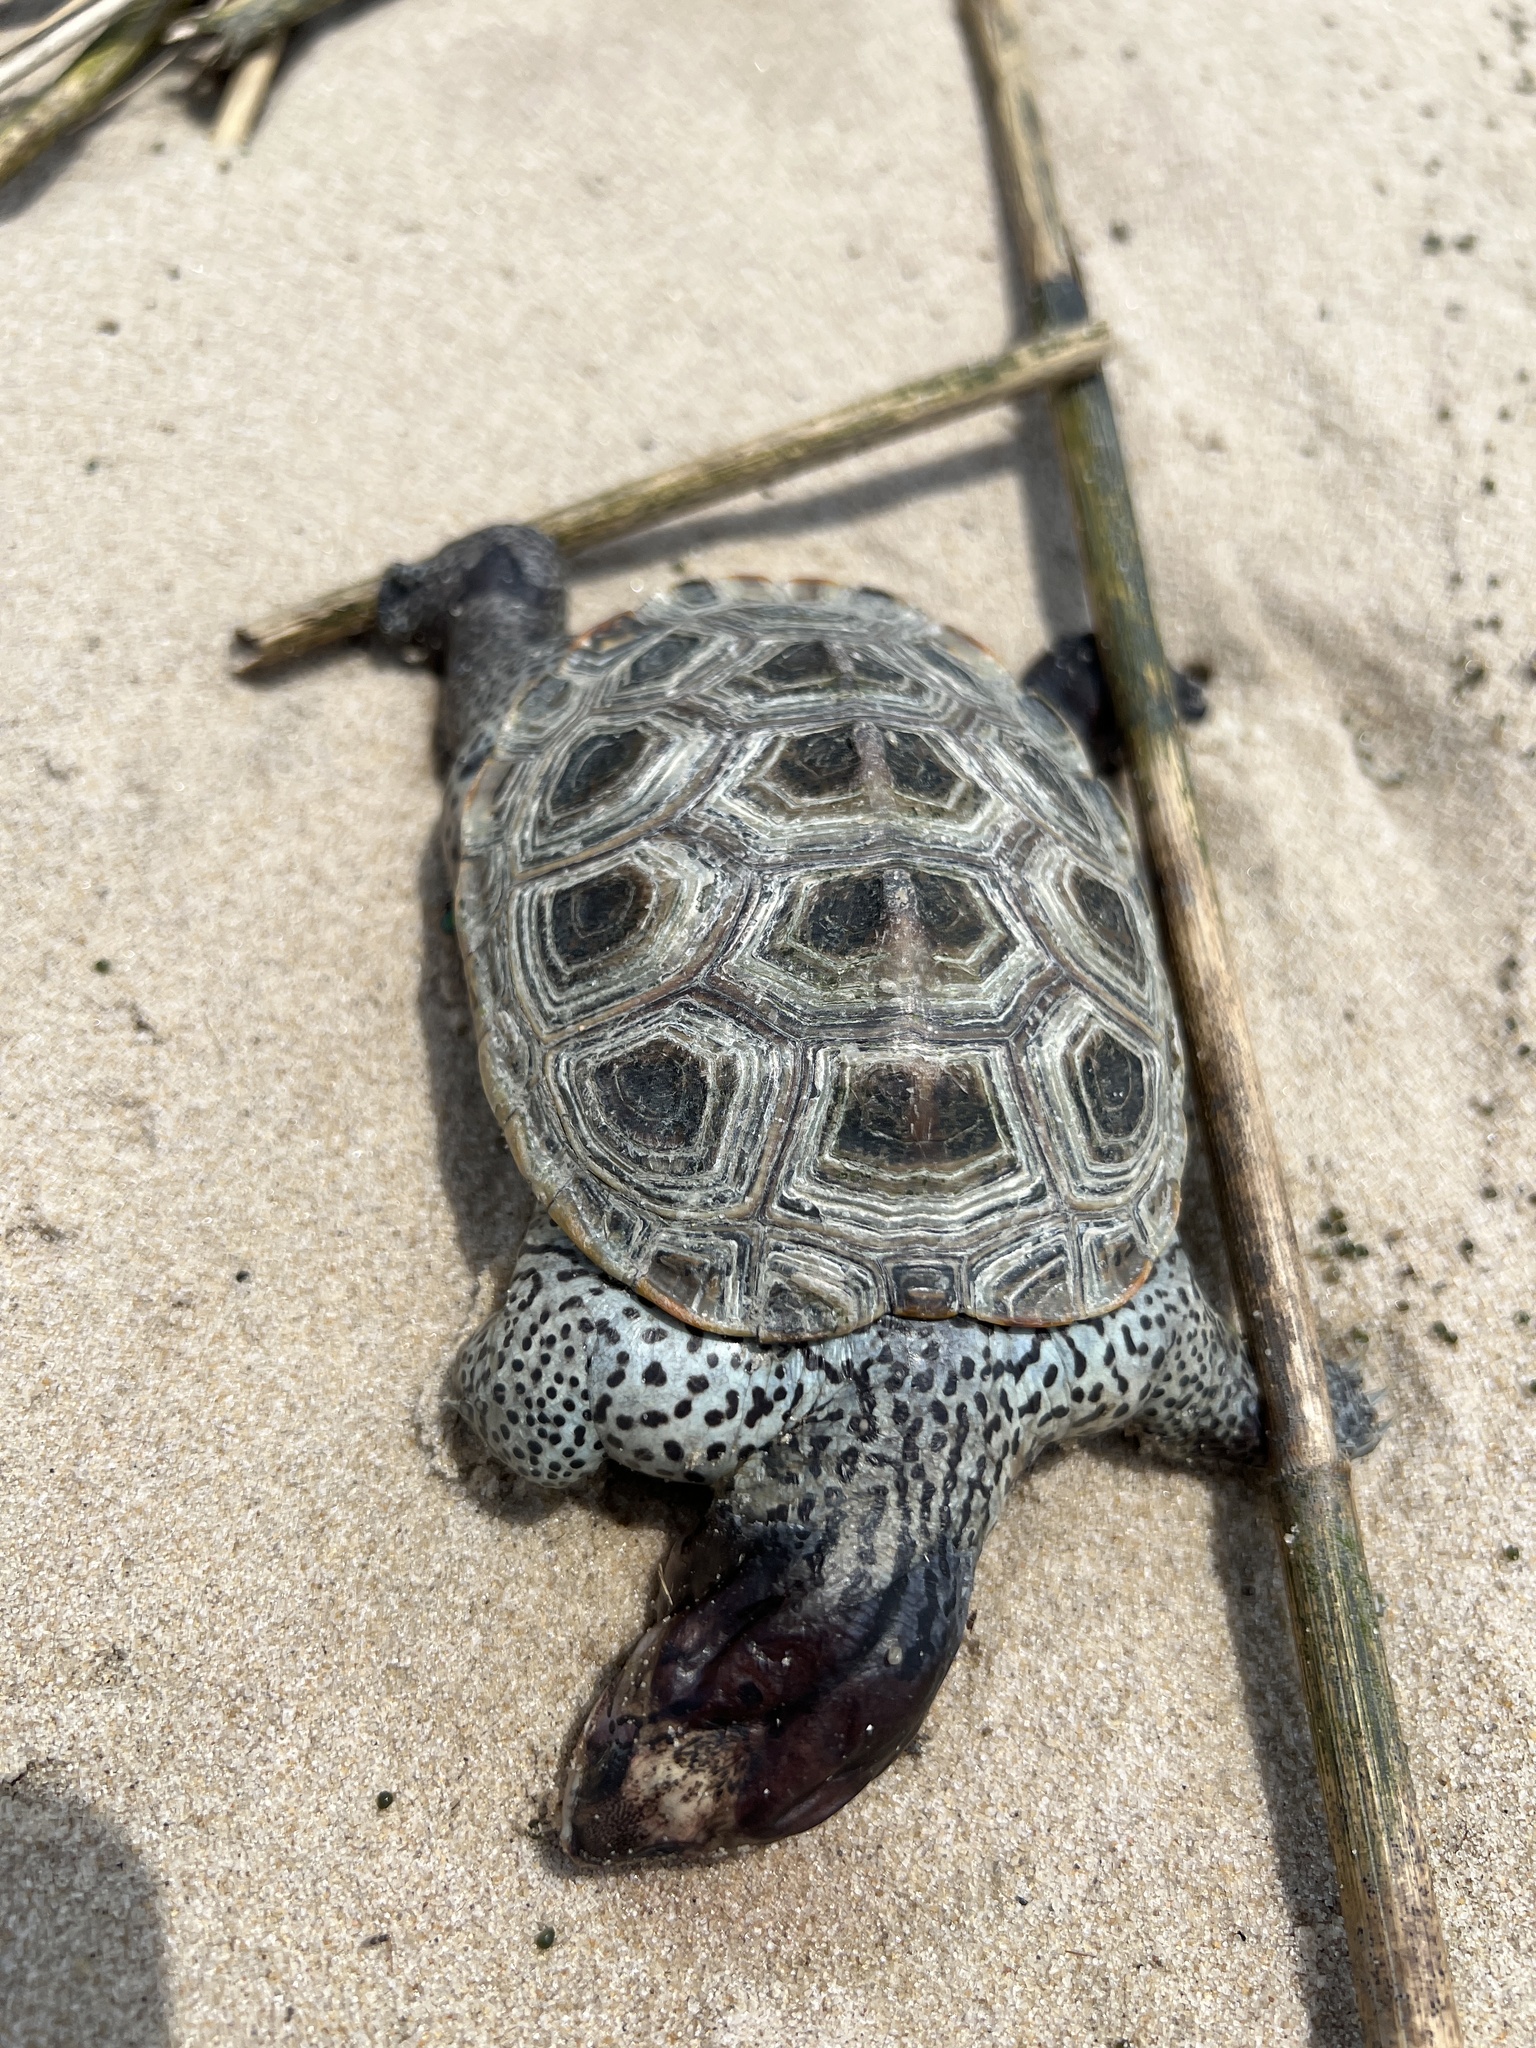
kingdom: Animalia
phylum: Chordata
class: Testudines
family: Emydidae
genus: Malaclemys
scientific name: Malaclemys terrapin
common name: Diamondback terrapin
